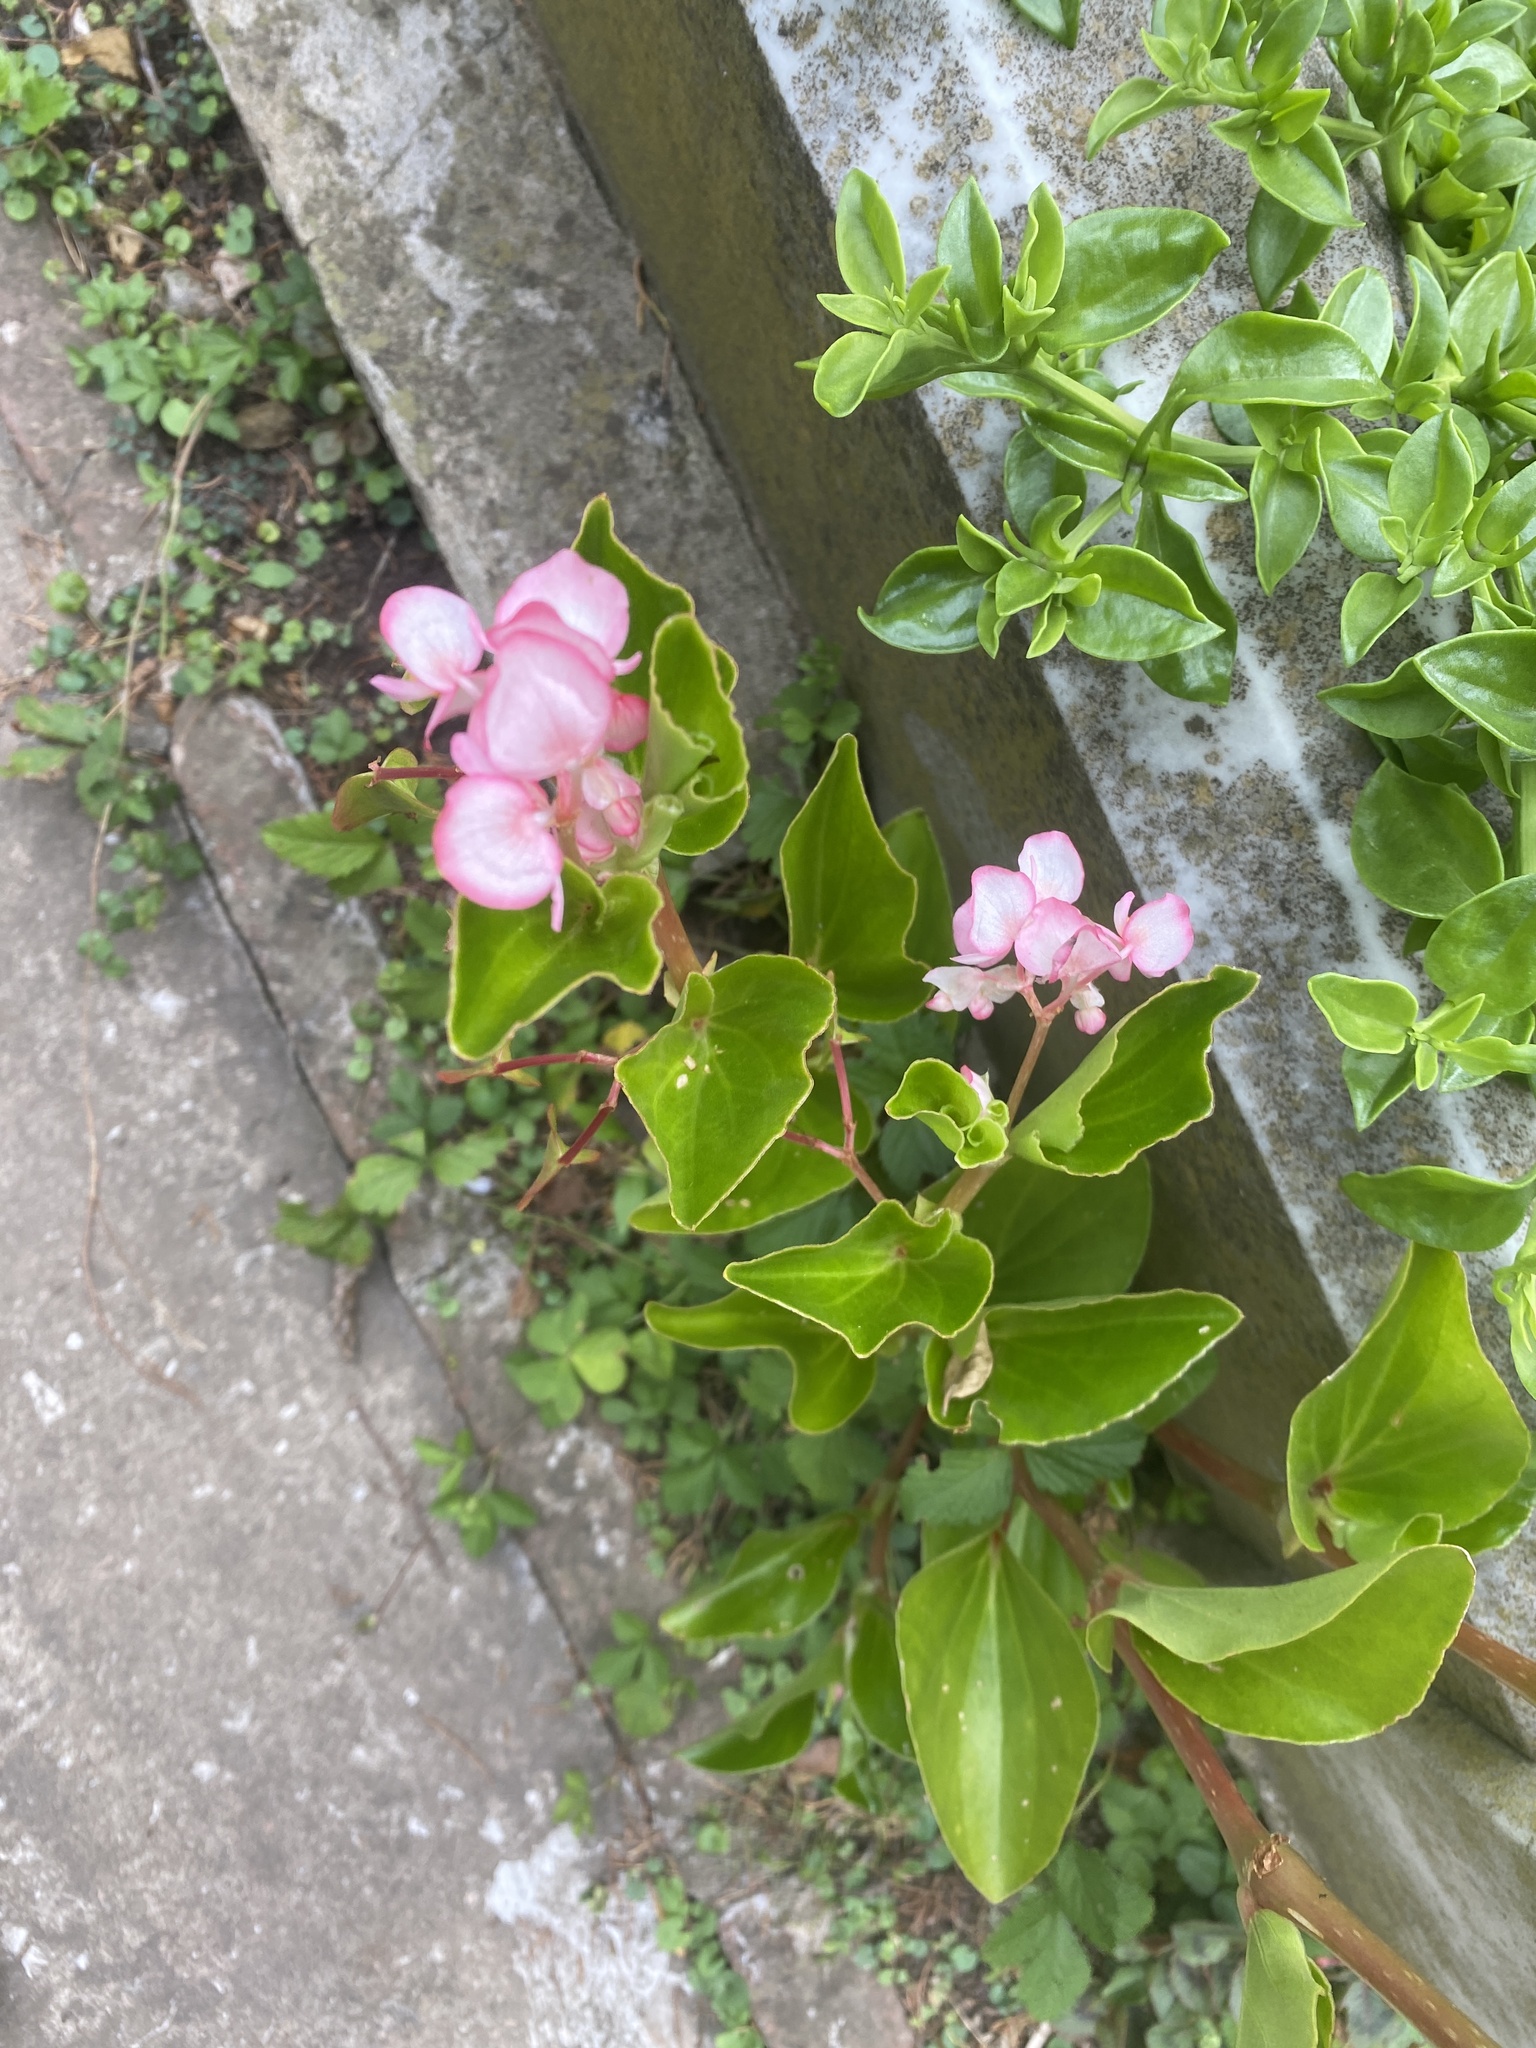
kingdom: Plantae
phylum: Tracheophyta
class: Magnoliopsida
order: Cucurbitales
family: Begoniaceae
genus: Begonia
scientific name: Begonia cucullata
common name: Clubbed begonia
